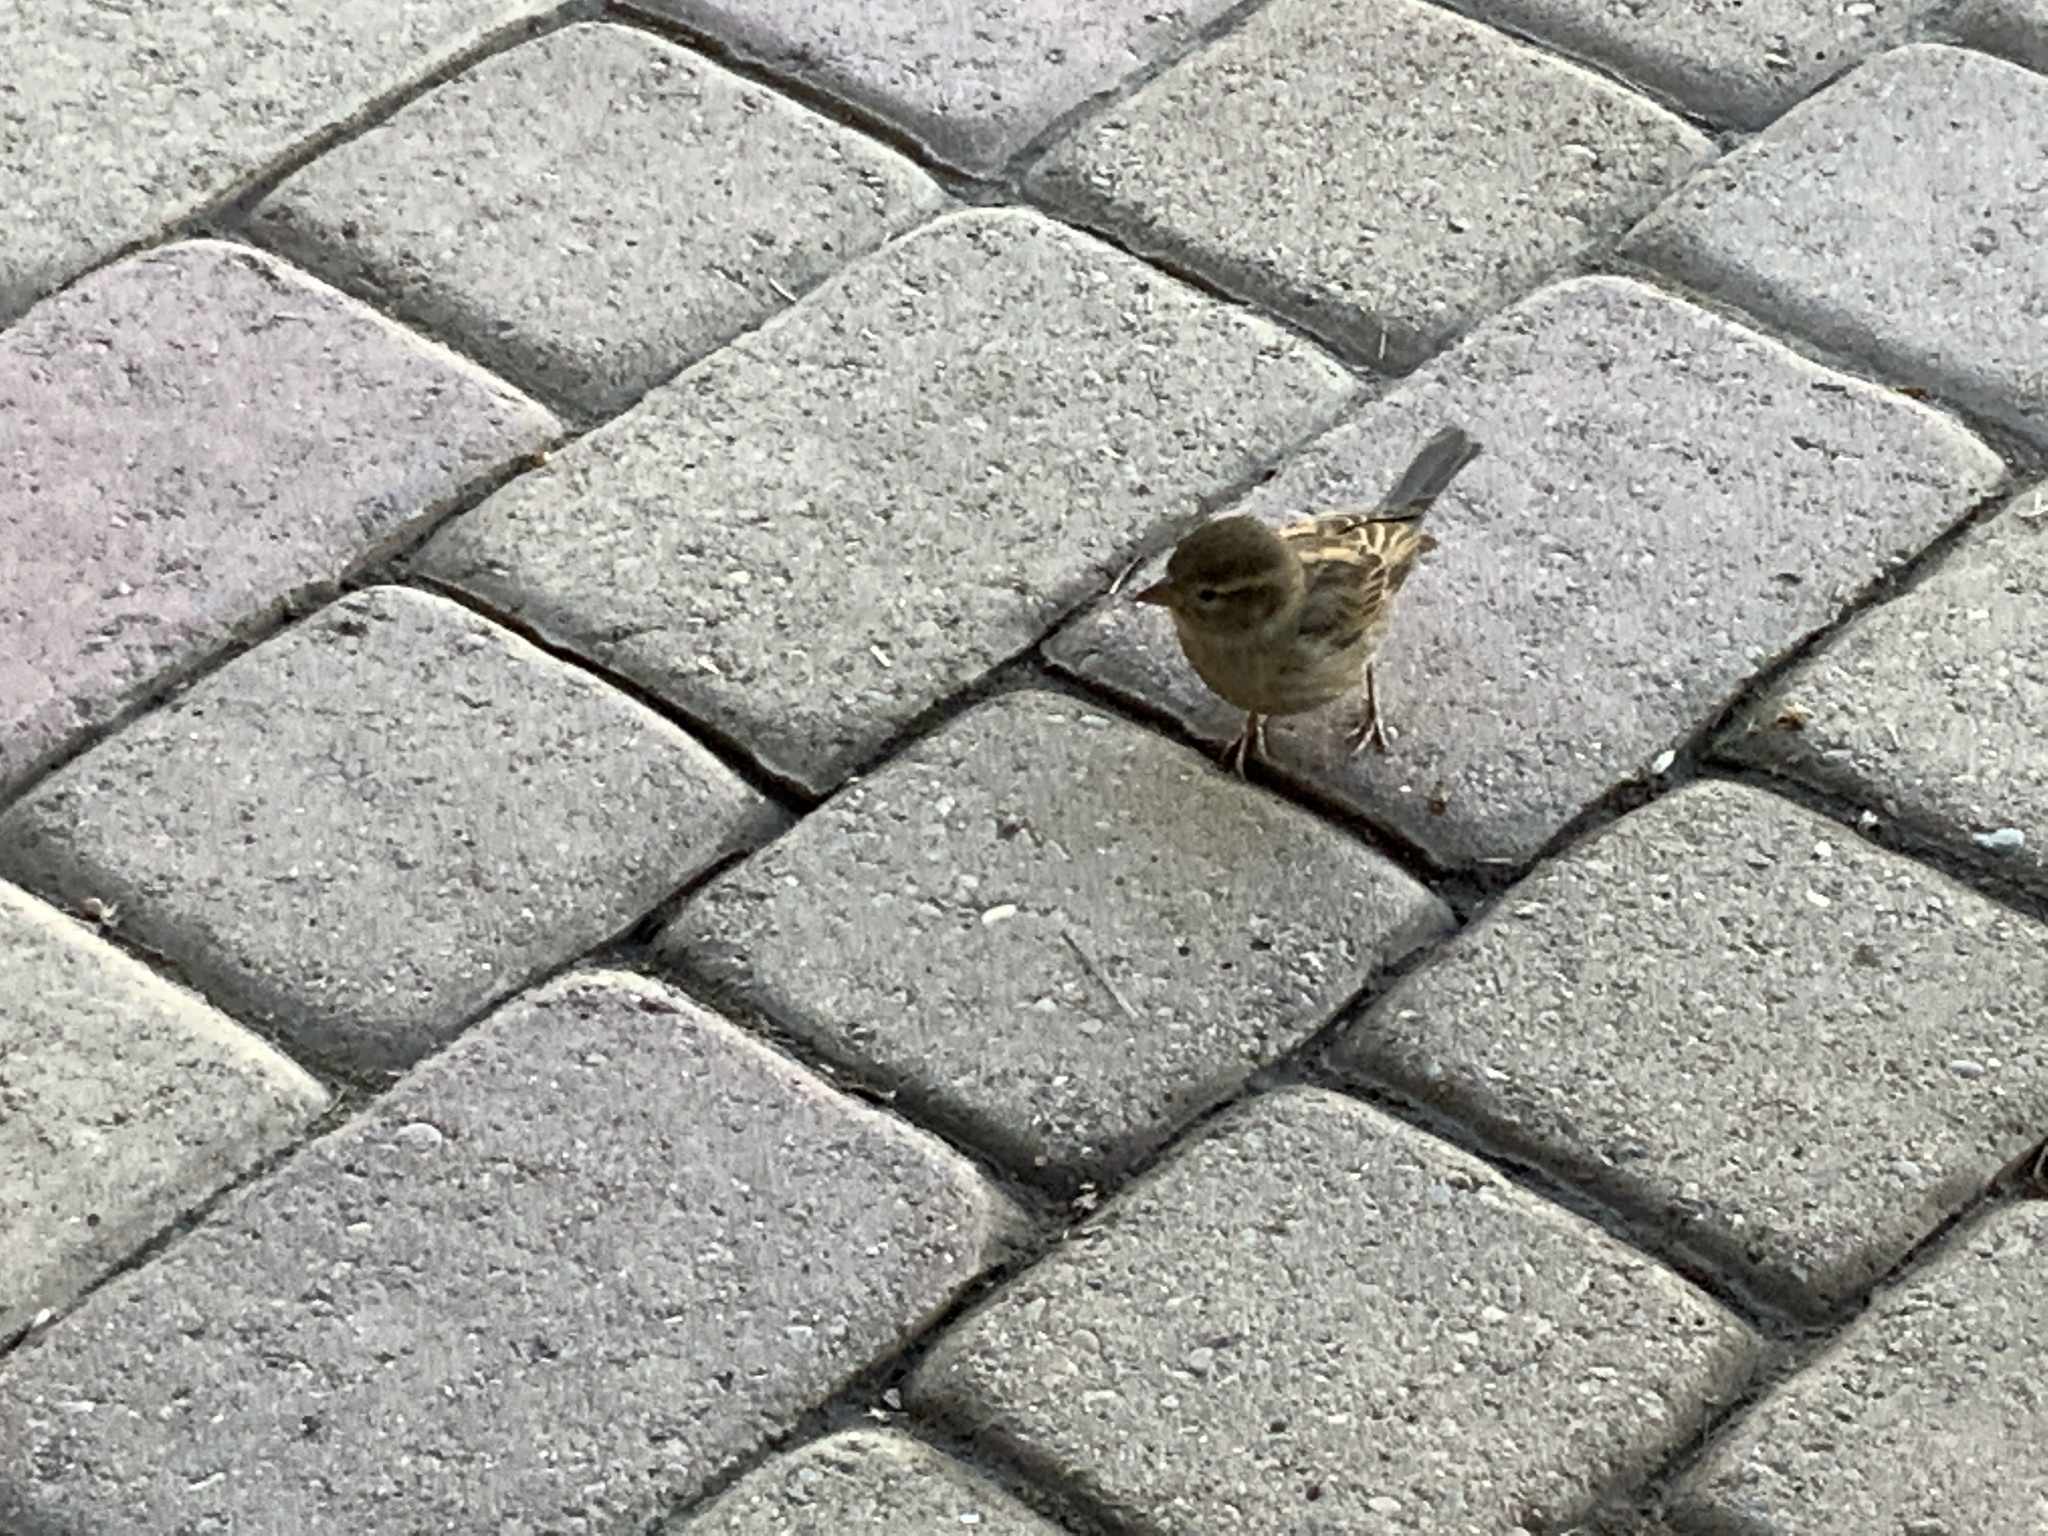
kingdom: Animalia
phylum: Chordata
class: Aves
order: Passeriformes
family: Passeridae
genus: Passer
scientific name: Passer domesticus
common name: House sparrow
